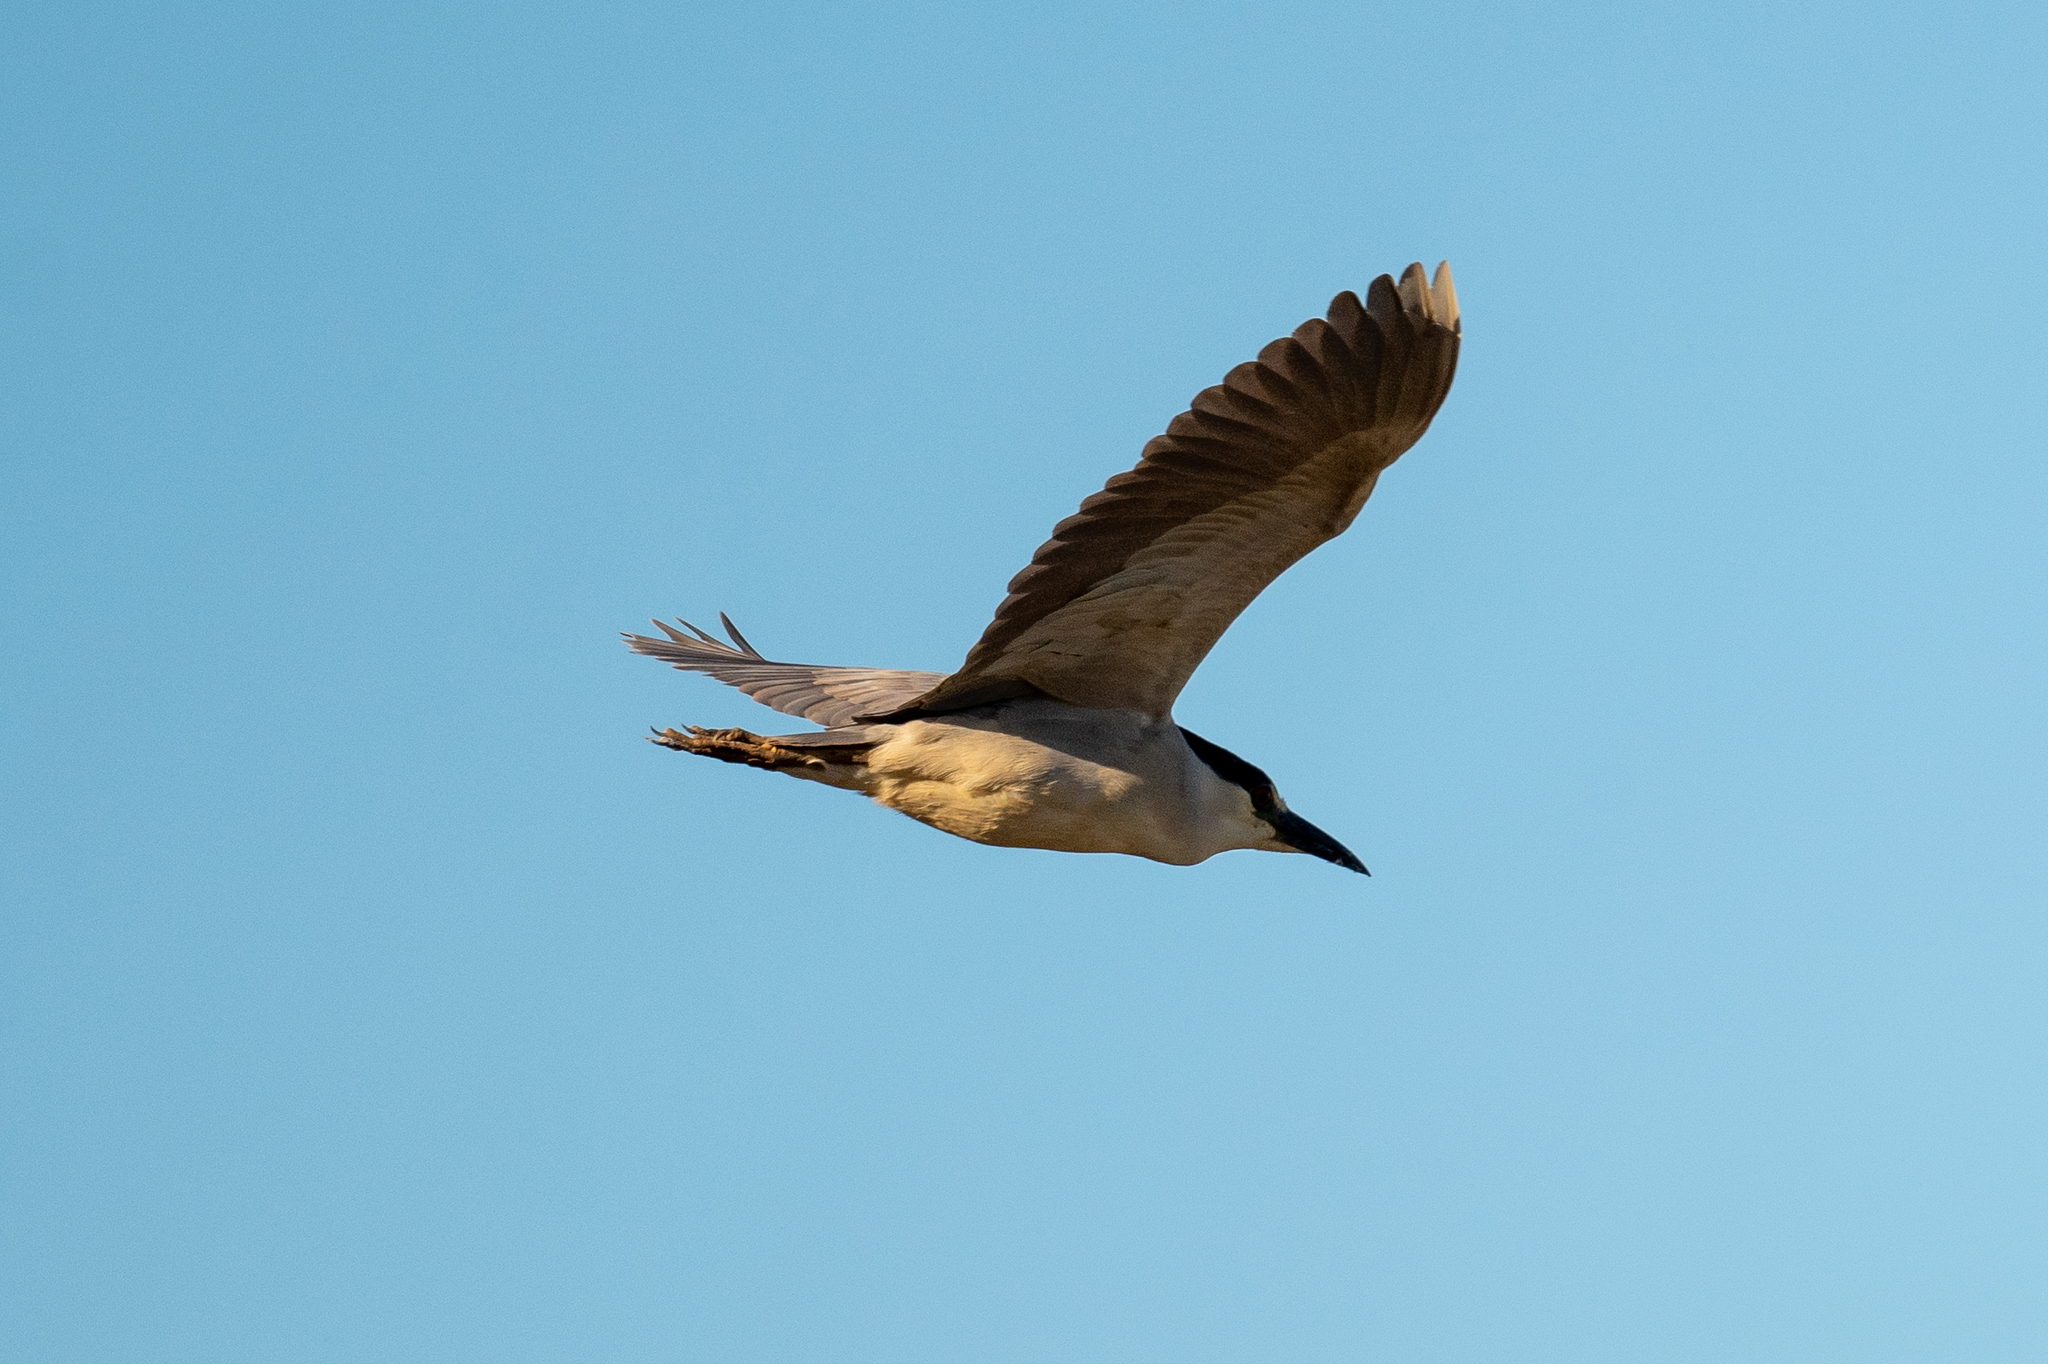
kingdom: Animalia
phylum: Chordata
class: Aves
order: Pelecaniformes
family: Ardeidae
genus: Nycticorax
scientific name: Nycticorax nycticorax
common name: Black-crowned night heron
